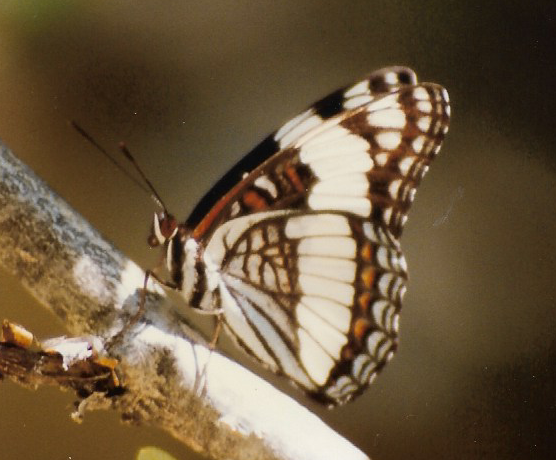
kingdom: Animalia
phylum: Arthropoda
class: Insecta
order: Lepidoptera
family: Nymphalidae
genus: Limenitis
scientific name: Limenitis weidemeyerii
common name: Weidemeyer's admiral
